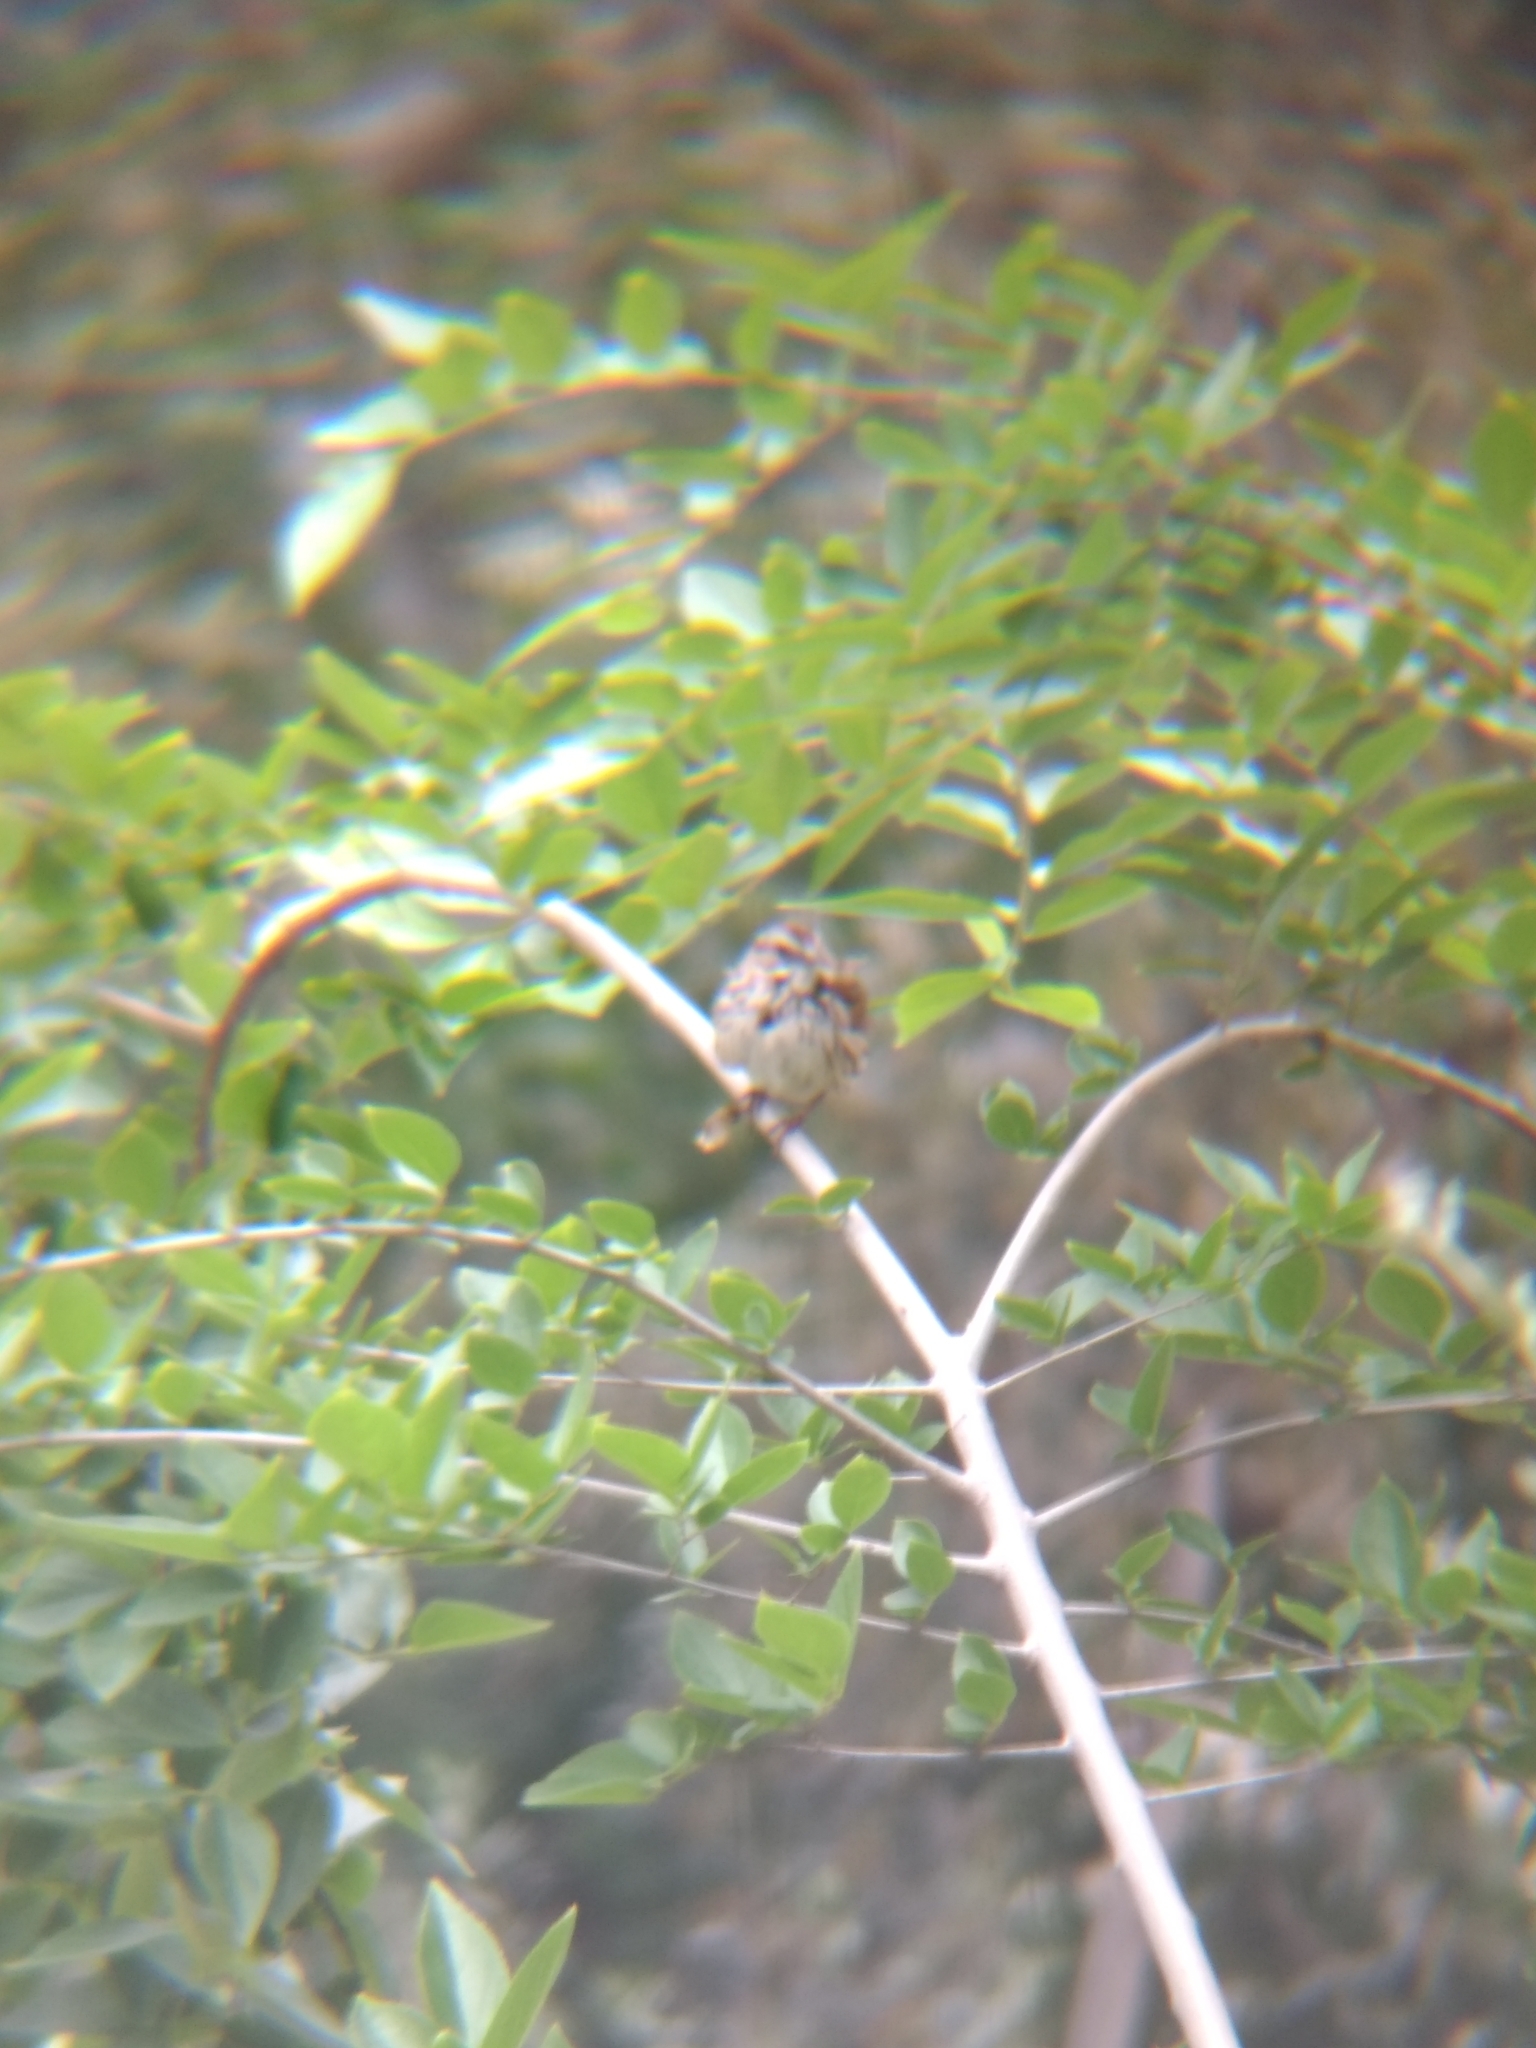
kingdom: Animalia
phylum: Chordata
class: Aves
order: Passeriformes
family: Passerellidae
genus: Melospiza
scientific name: Melospiza melodia
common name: Song sparrow
